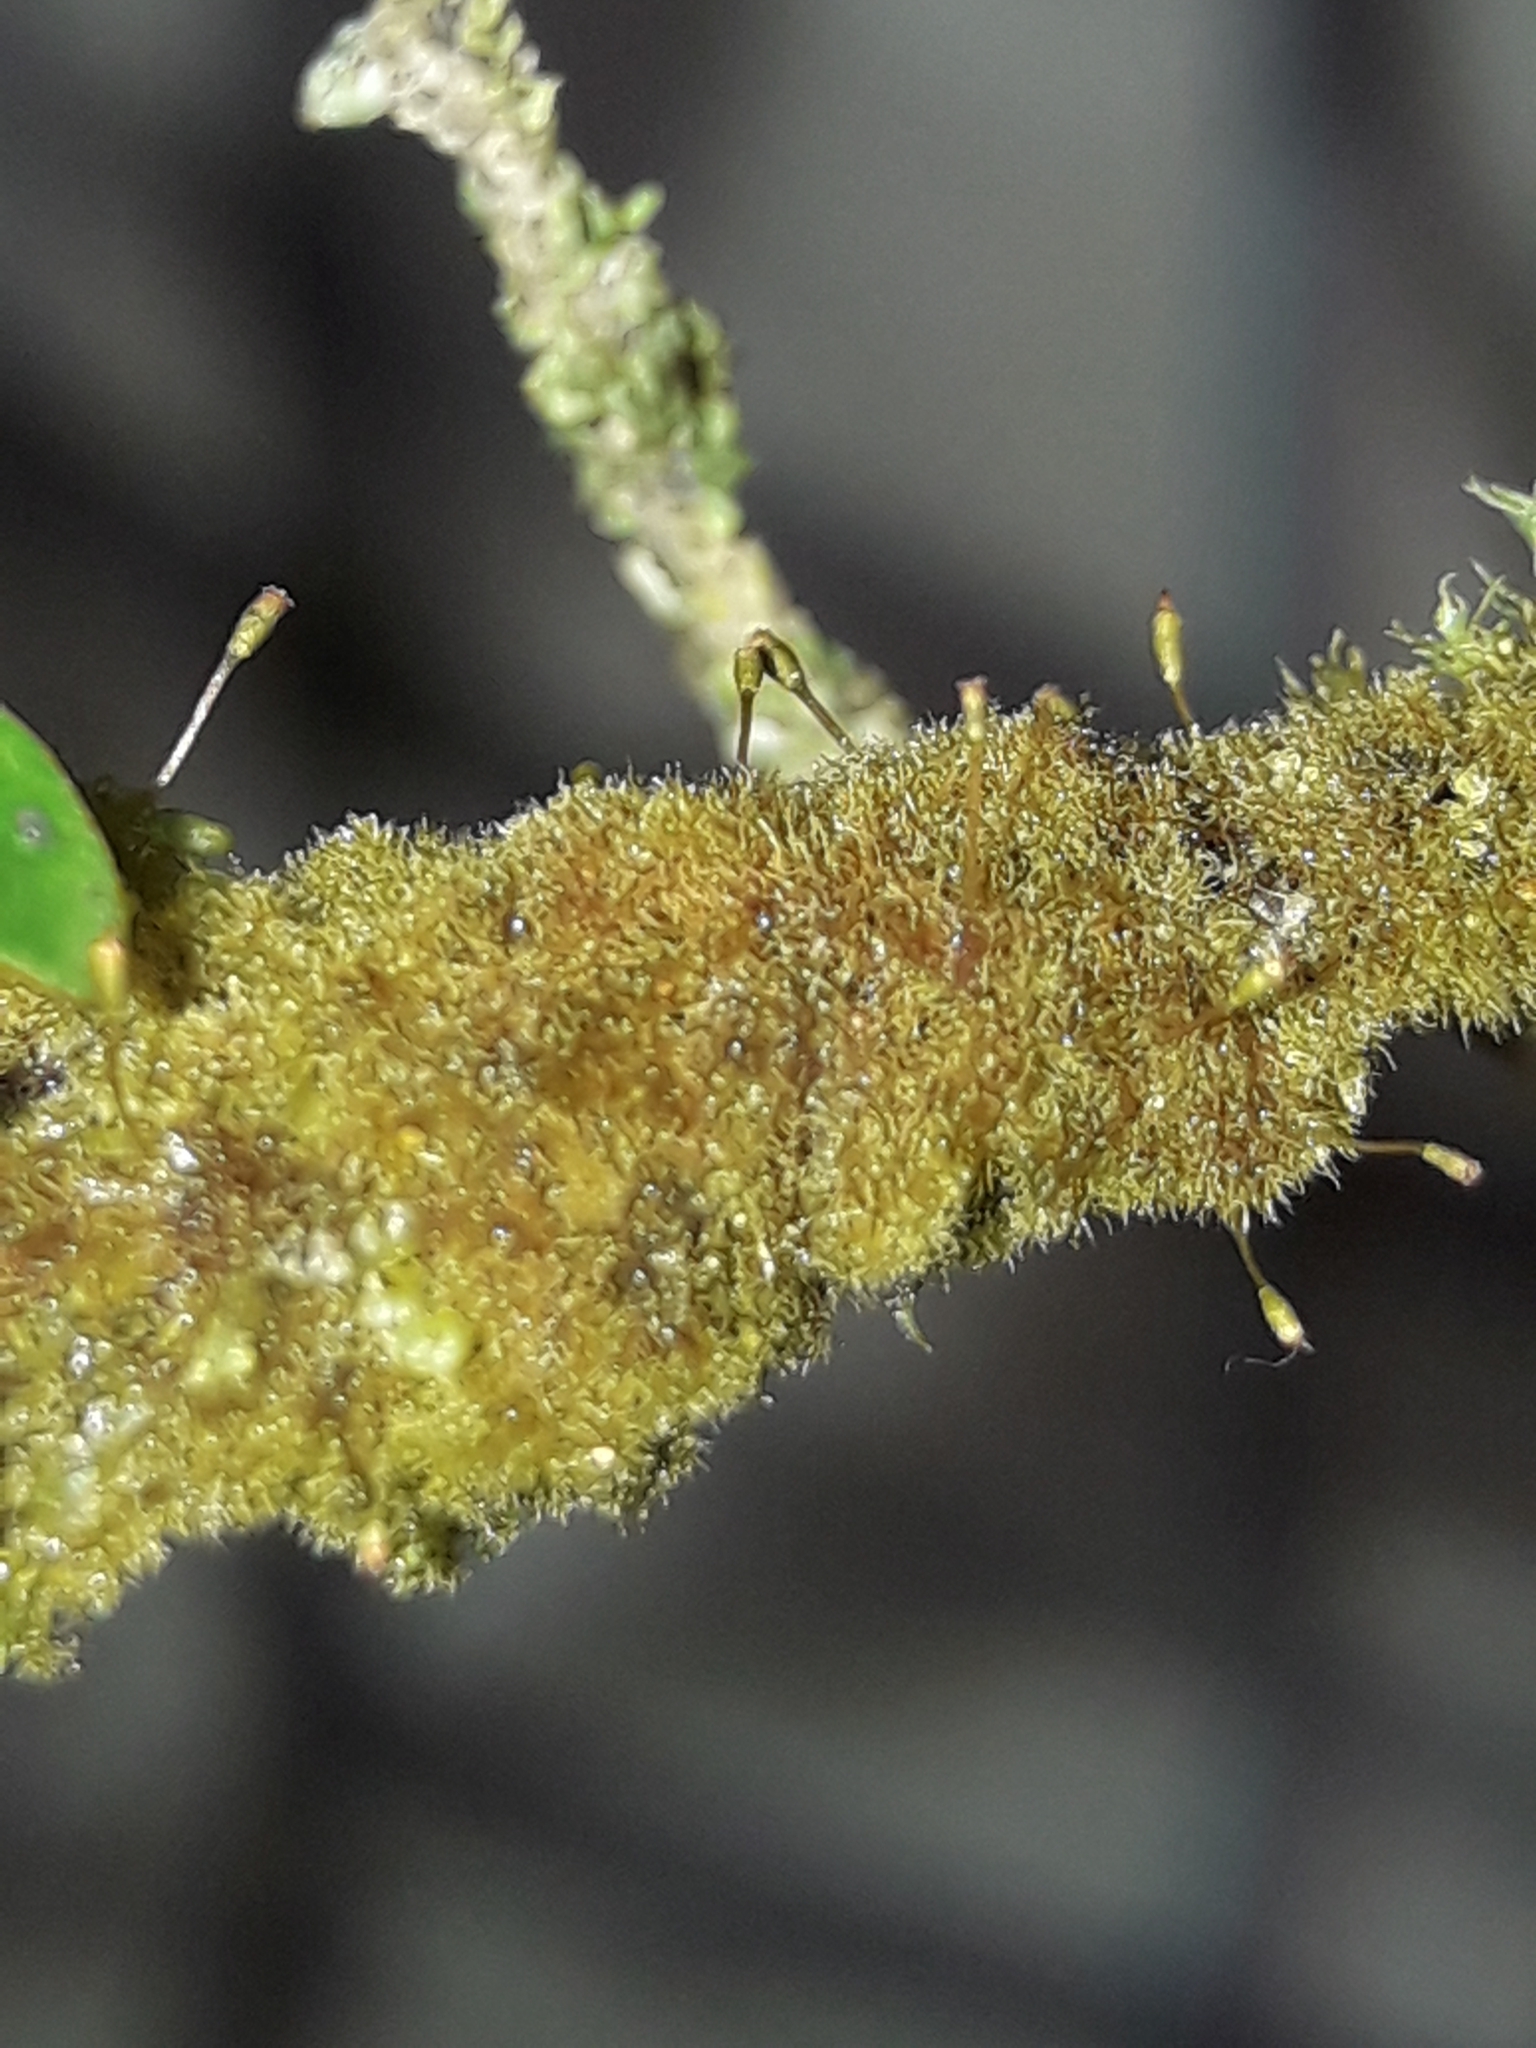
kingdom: Plantae
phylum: Bryophyta
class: Bryopsida
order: Hookeriales
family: Daltoniaceae
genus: Ephemeropsis
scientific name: Ephemeropsis trentepohlioides
